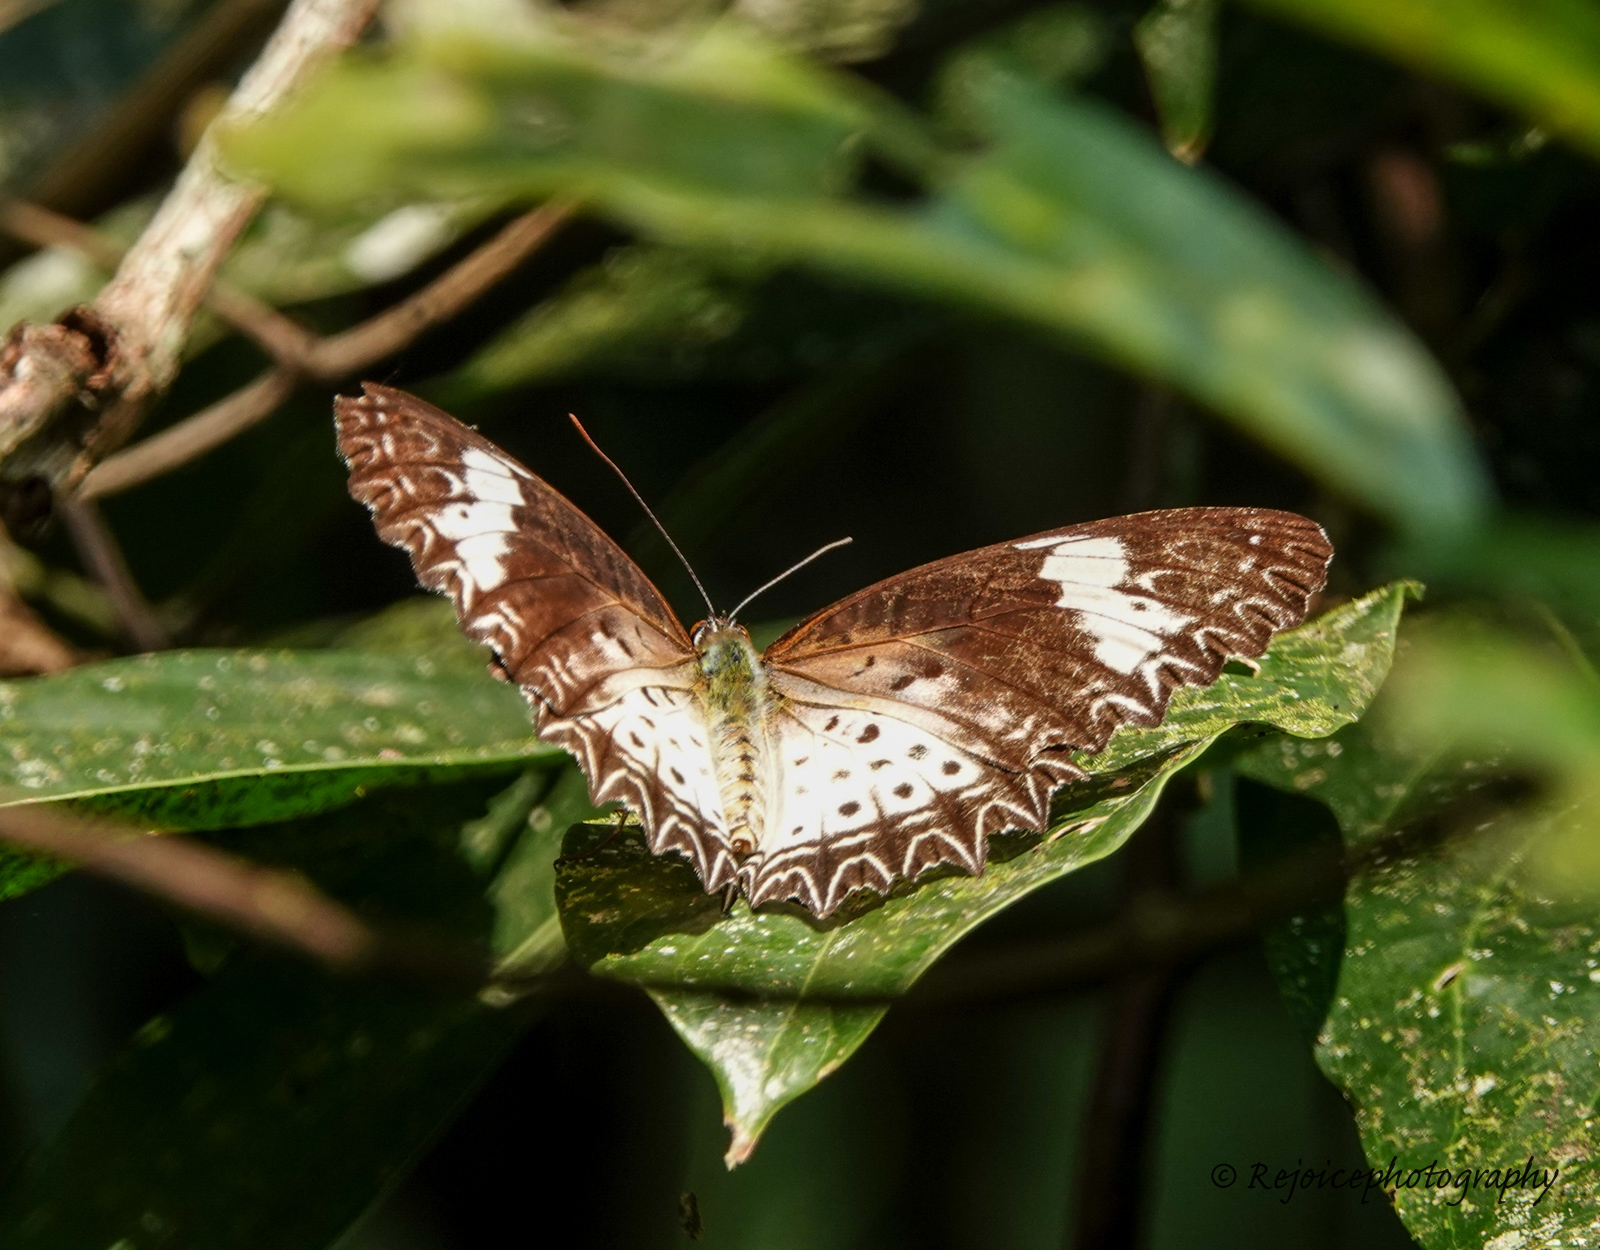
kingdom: Animalia
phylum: Arthropoda
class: Insecta
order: Lepidoptera
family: Nymphalidae
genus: Cethosia
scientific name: Cethosia cyane
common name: Leopard lacewing butterfly
